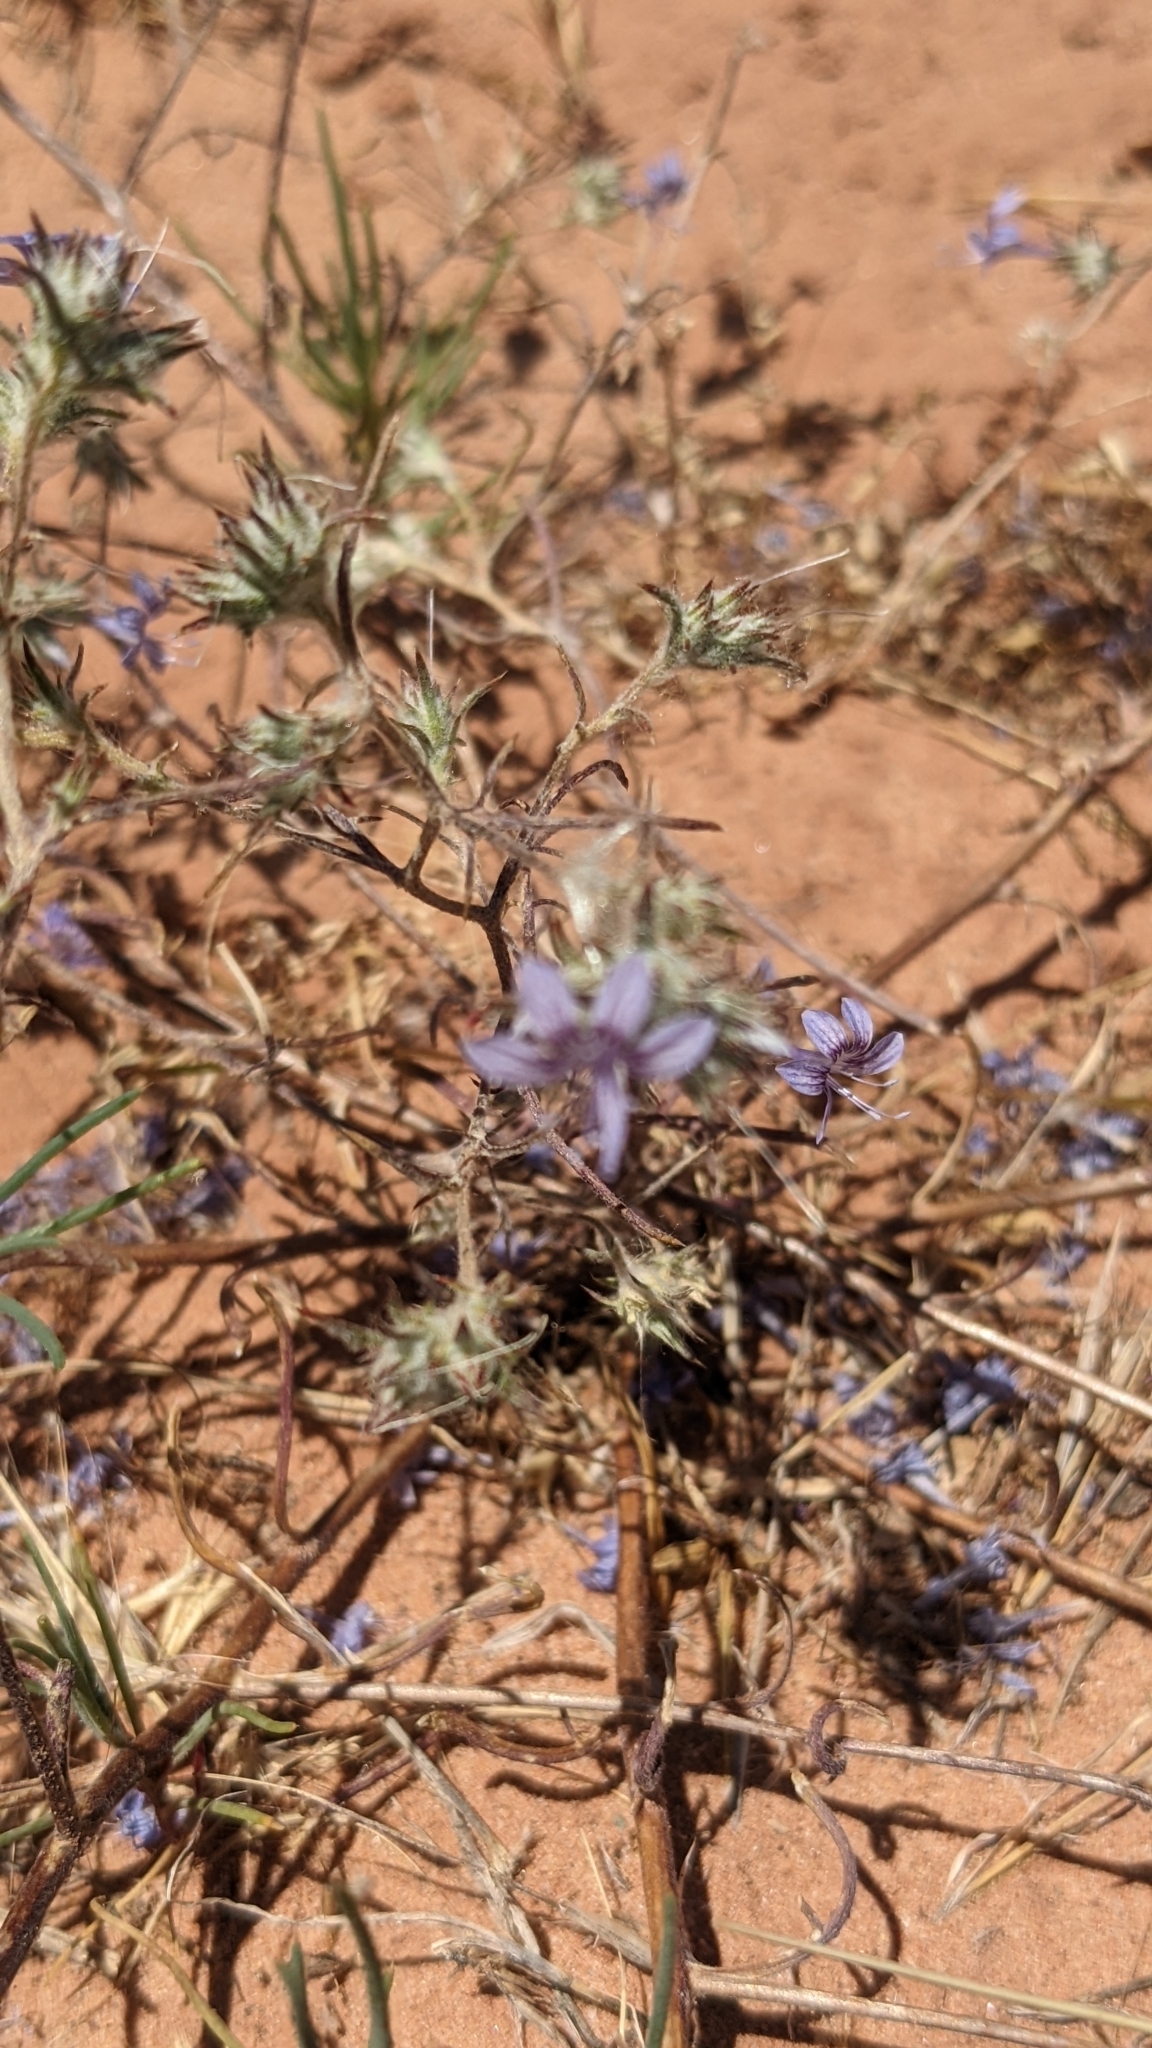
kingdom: Plantae
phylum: Tracheophyta
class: Magnoliopsida
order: Ericales
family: Polemoniaceae
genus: Eriastrum
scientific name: Eriastrum eremicum
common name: Desert eriastrum
